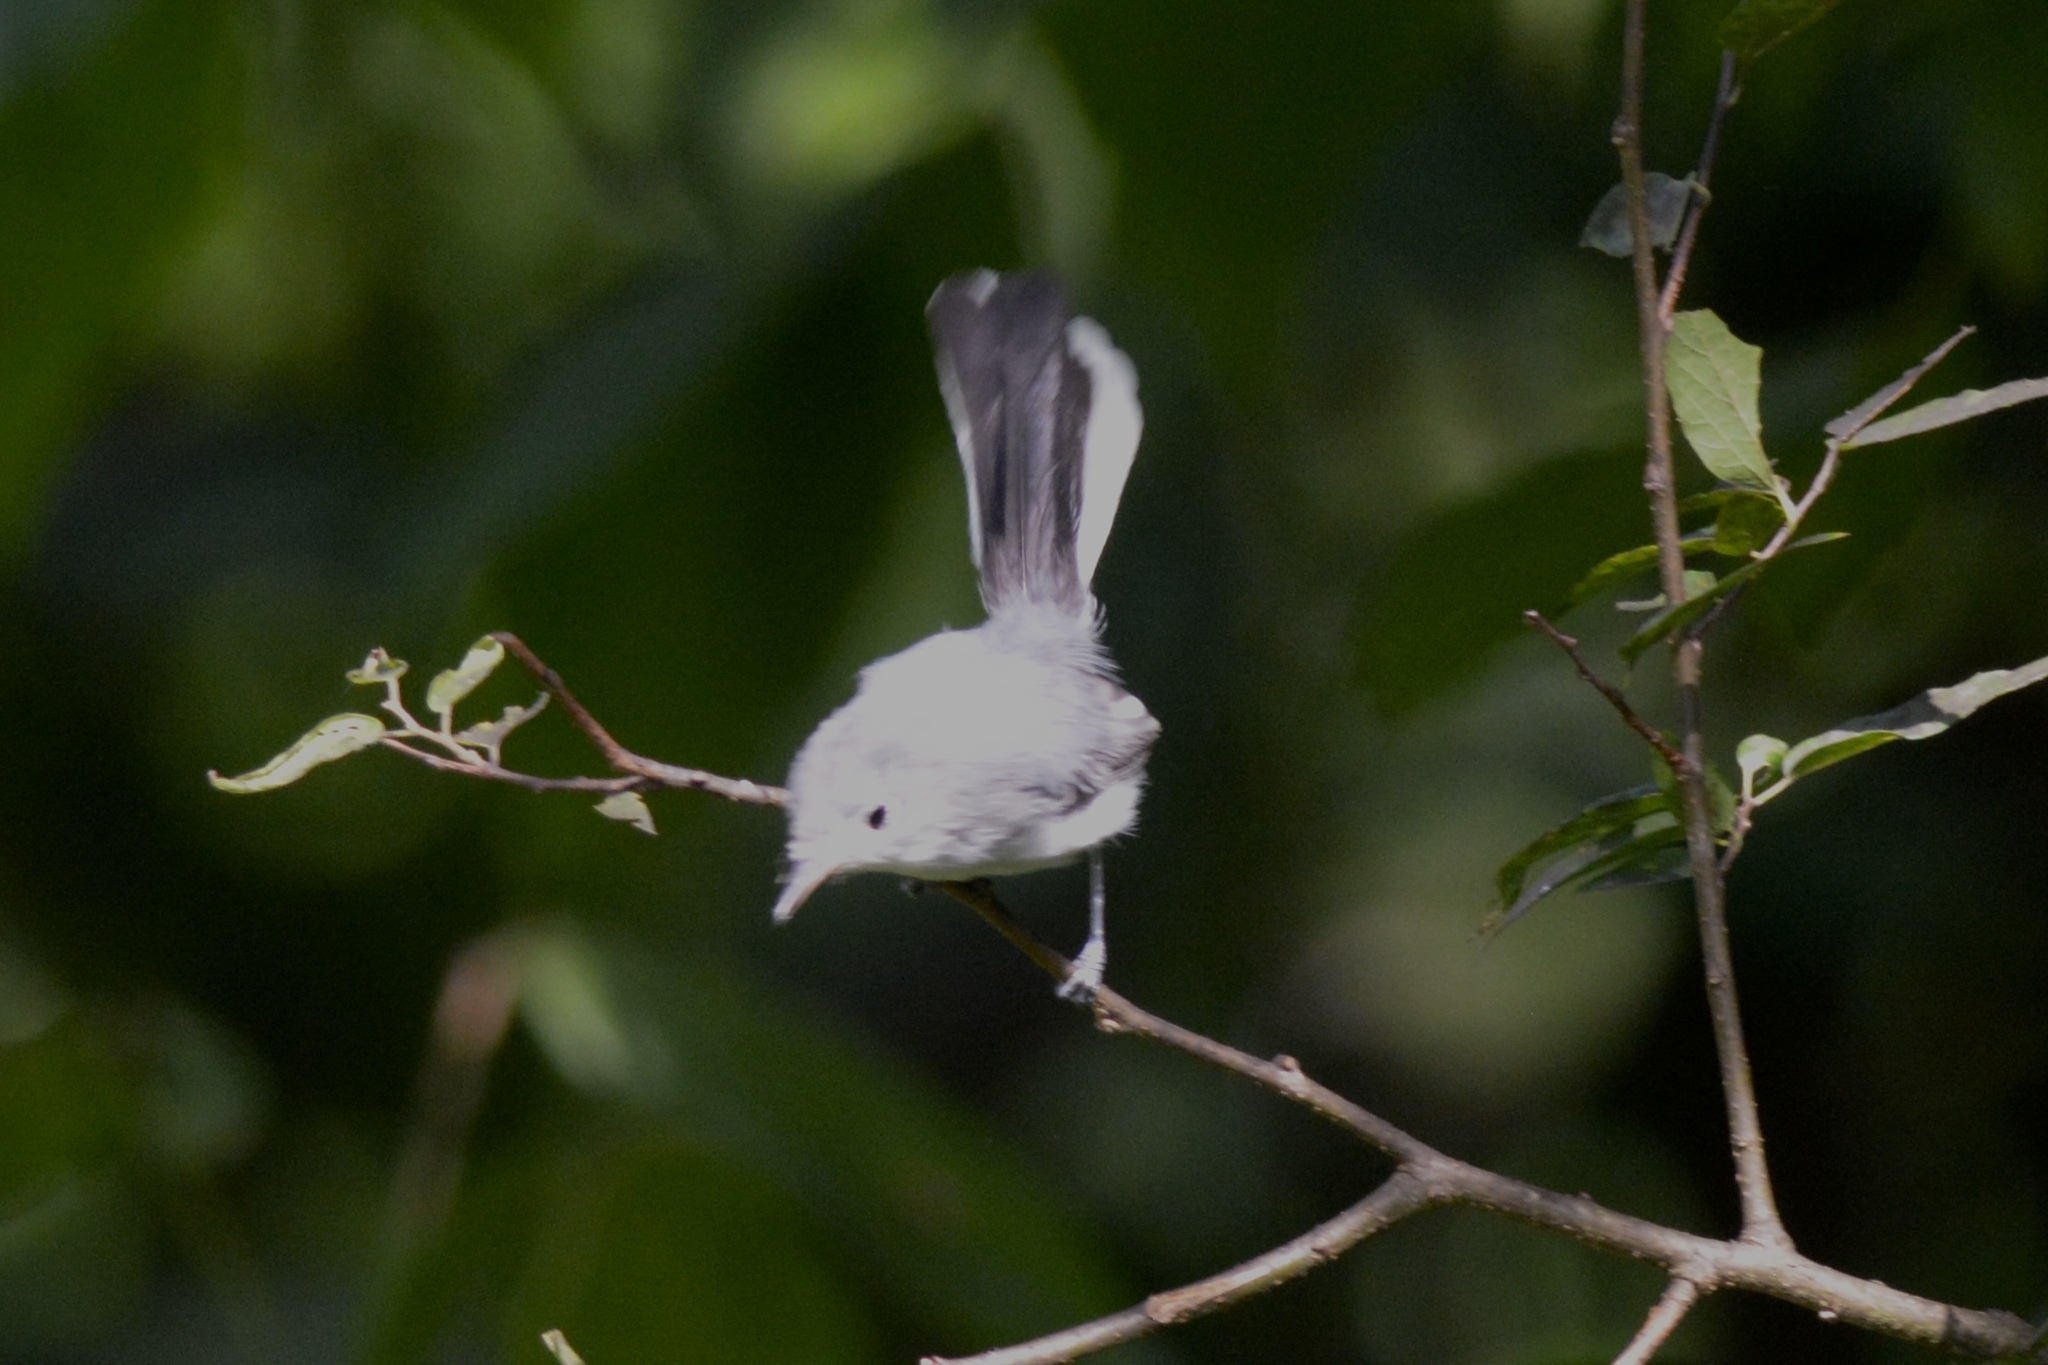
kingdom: Animalia
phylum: Chordata
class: Aves
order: Passeriformes
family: Polioptilidae
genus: Polioptila
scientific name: Polioptila caerulea
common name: Blue-gray gnatcatcher
